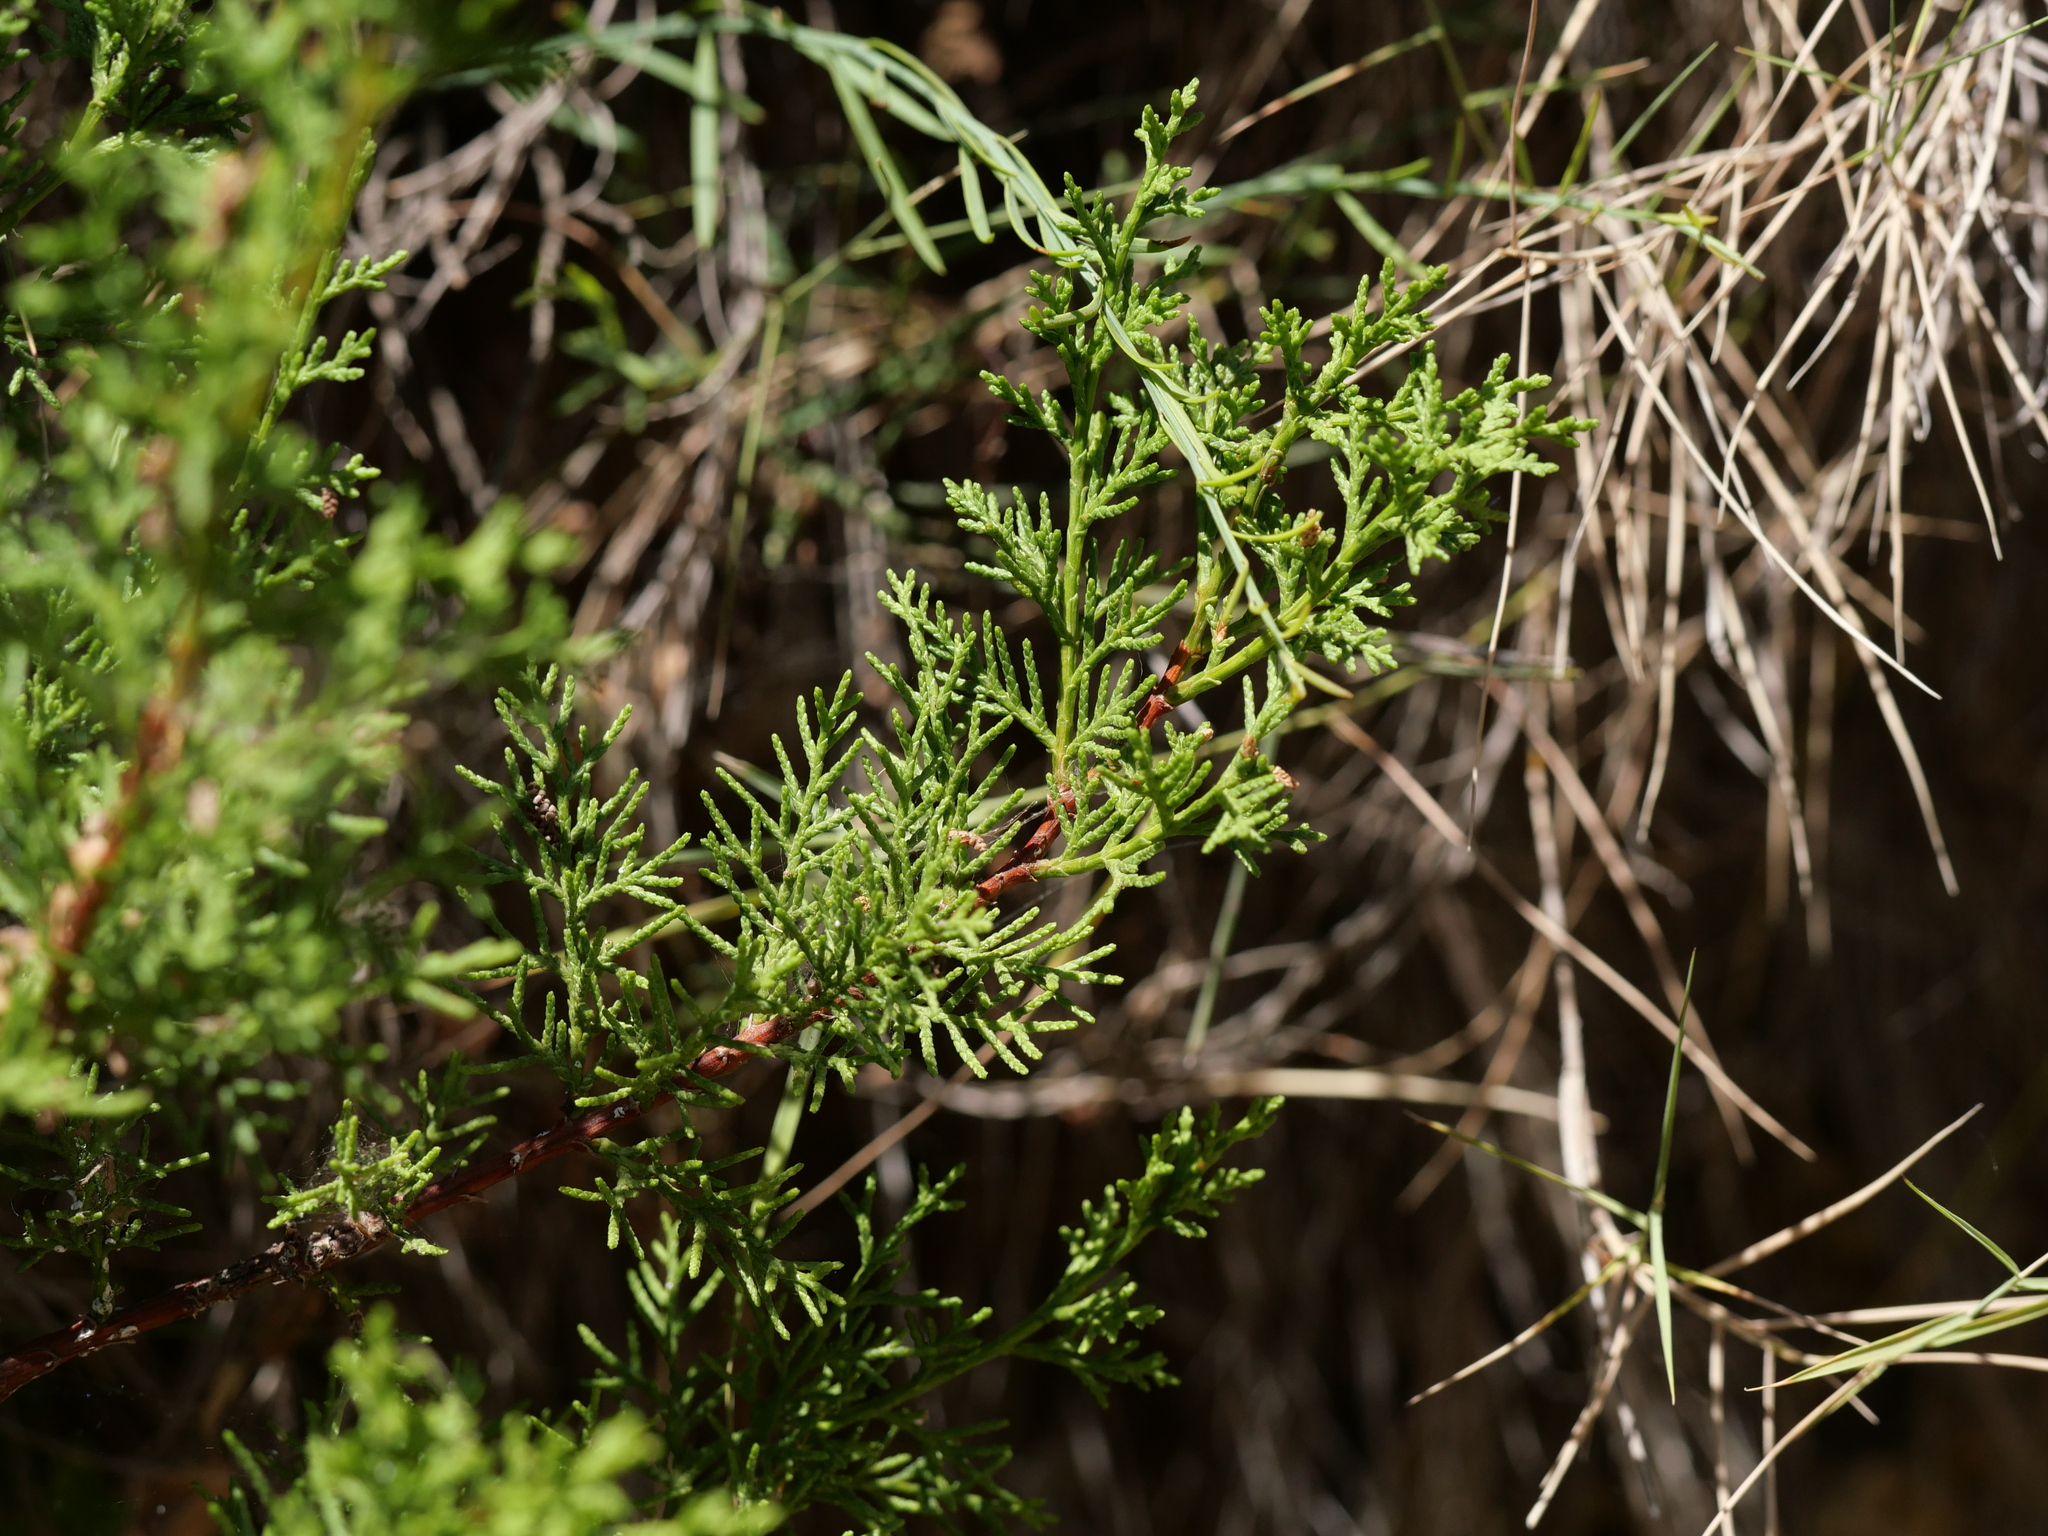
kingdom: Plantae
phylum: Tracheophyta
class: Pinopsida
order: Pinales
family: Cupressaceae
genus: Juniperus
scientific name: Juniperus phoenicea
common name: Phoenician juniper
